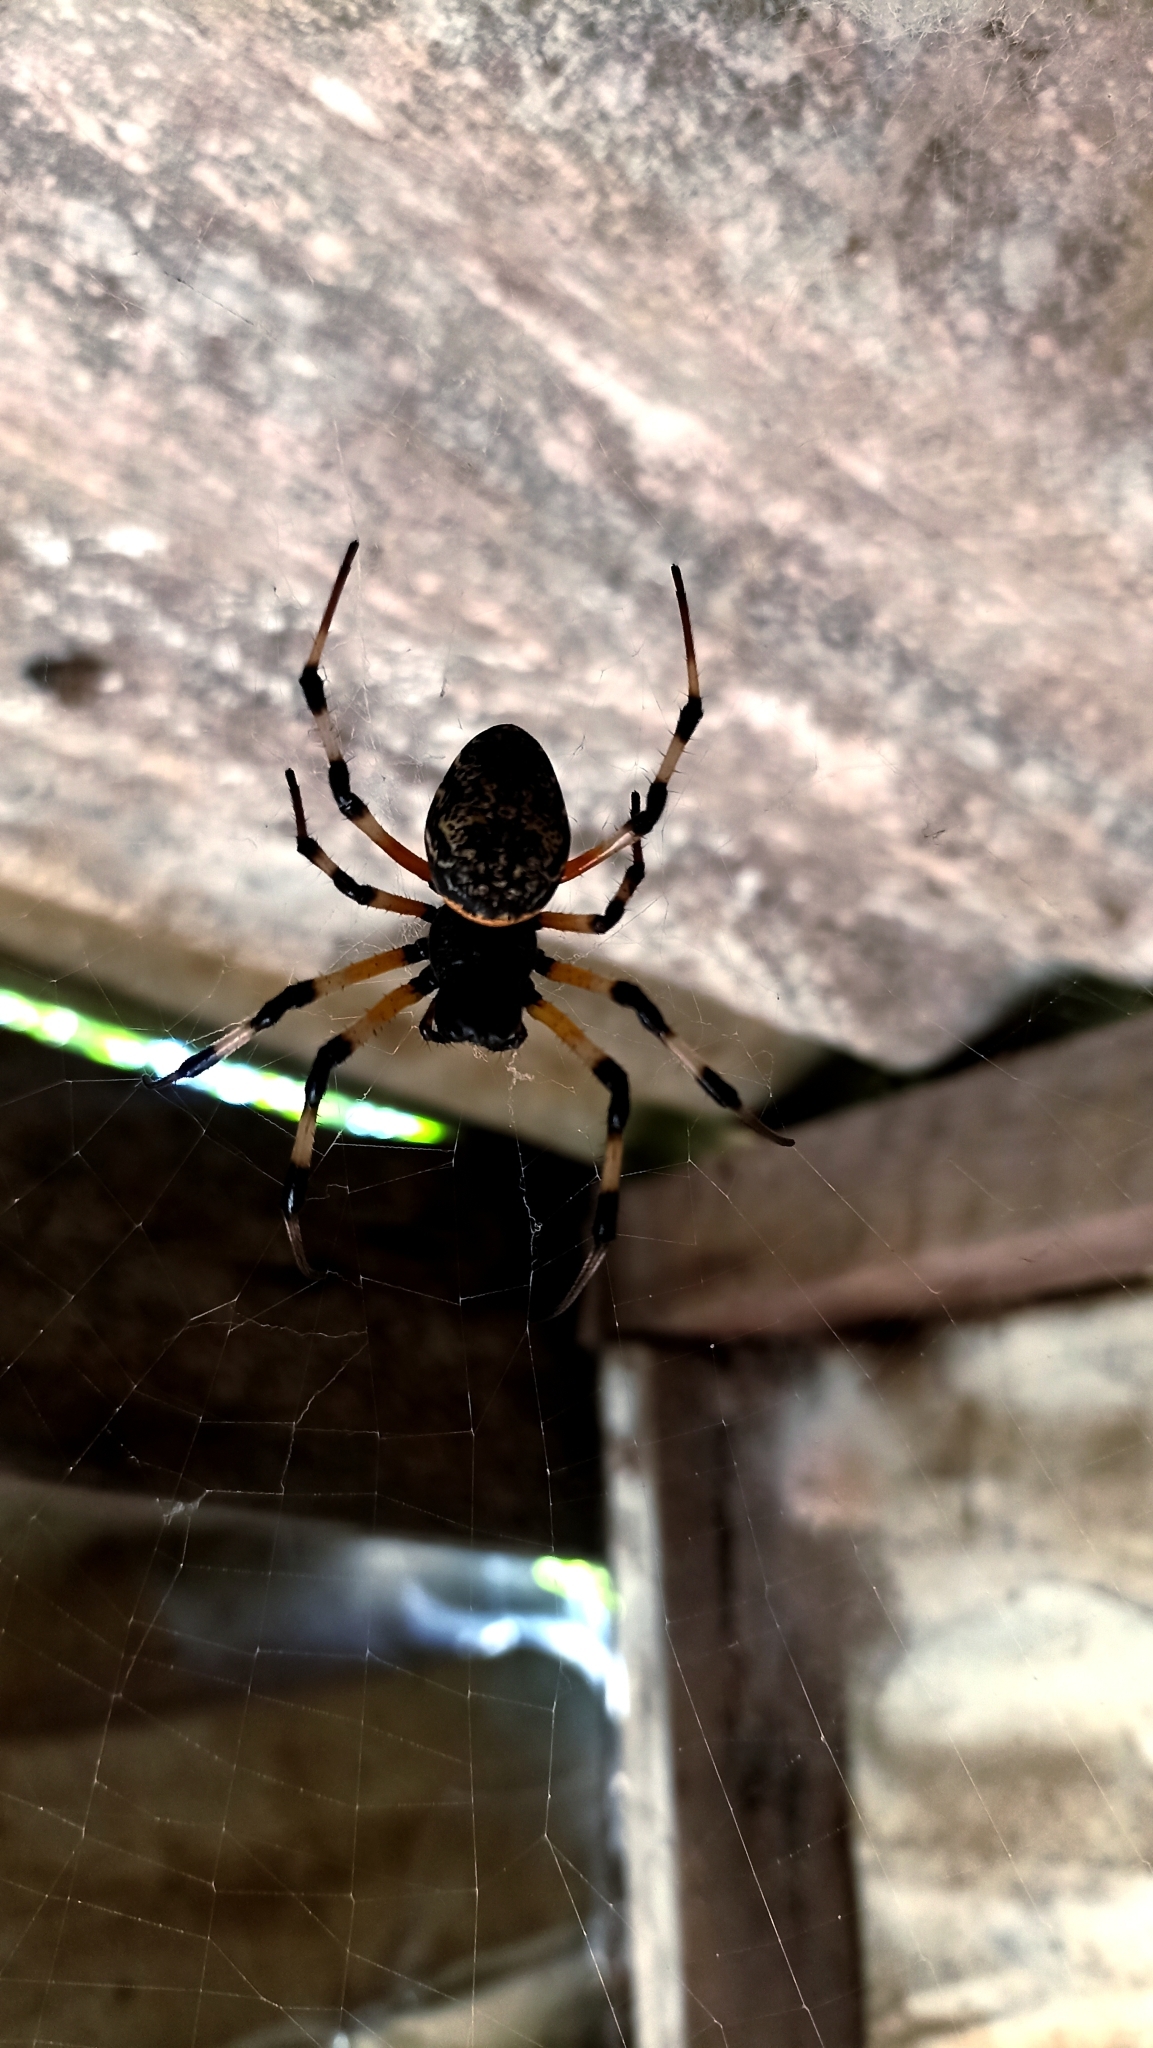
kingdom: Animalia
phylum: Arthropoda
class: Arachnida
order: Araneae
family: Araneidae
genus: Nephilingis
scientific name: Nephilingis cruentata
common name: African hermit spider
